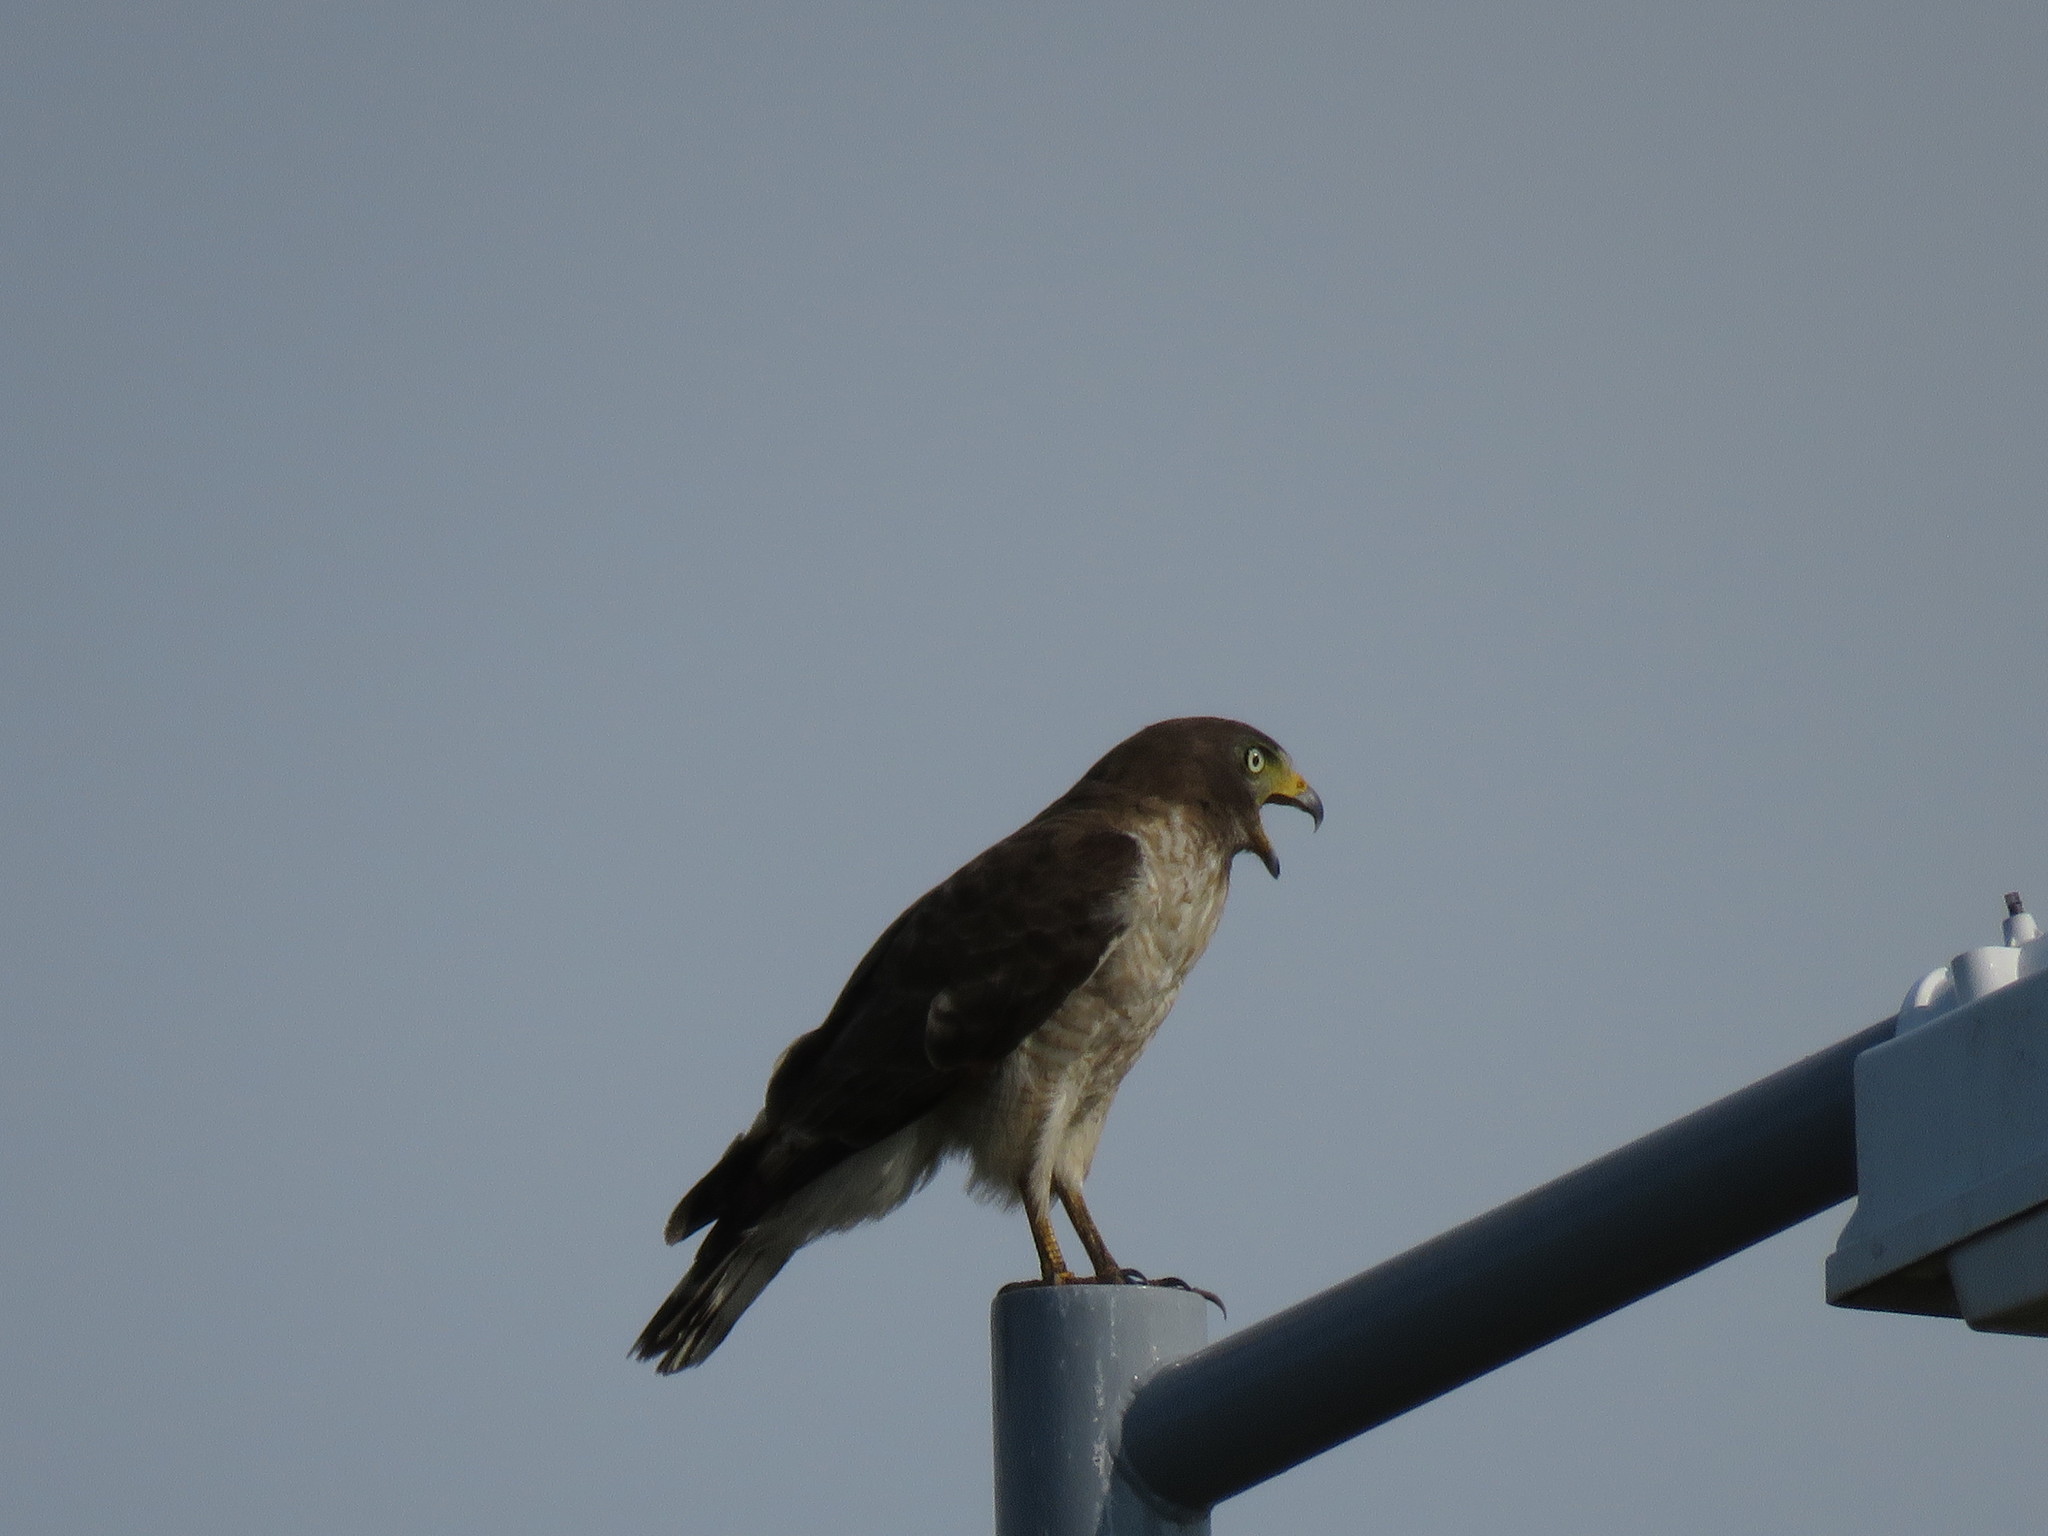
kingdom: Animalia
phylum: Chordata
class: Aves
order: Accipitriformes
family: Accipitridae
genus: Rupornis
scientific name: Rupornis magnirostris
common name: Roadside hawk
